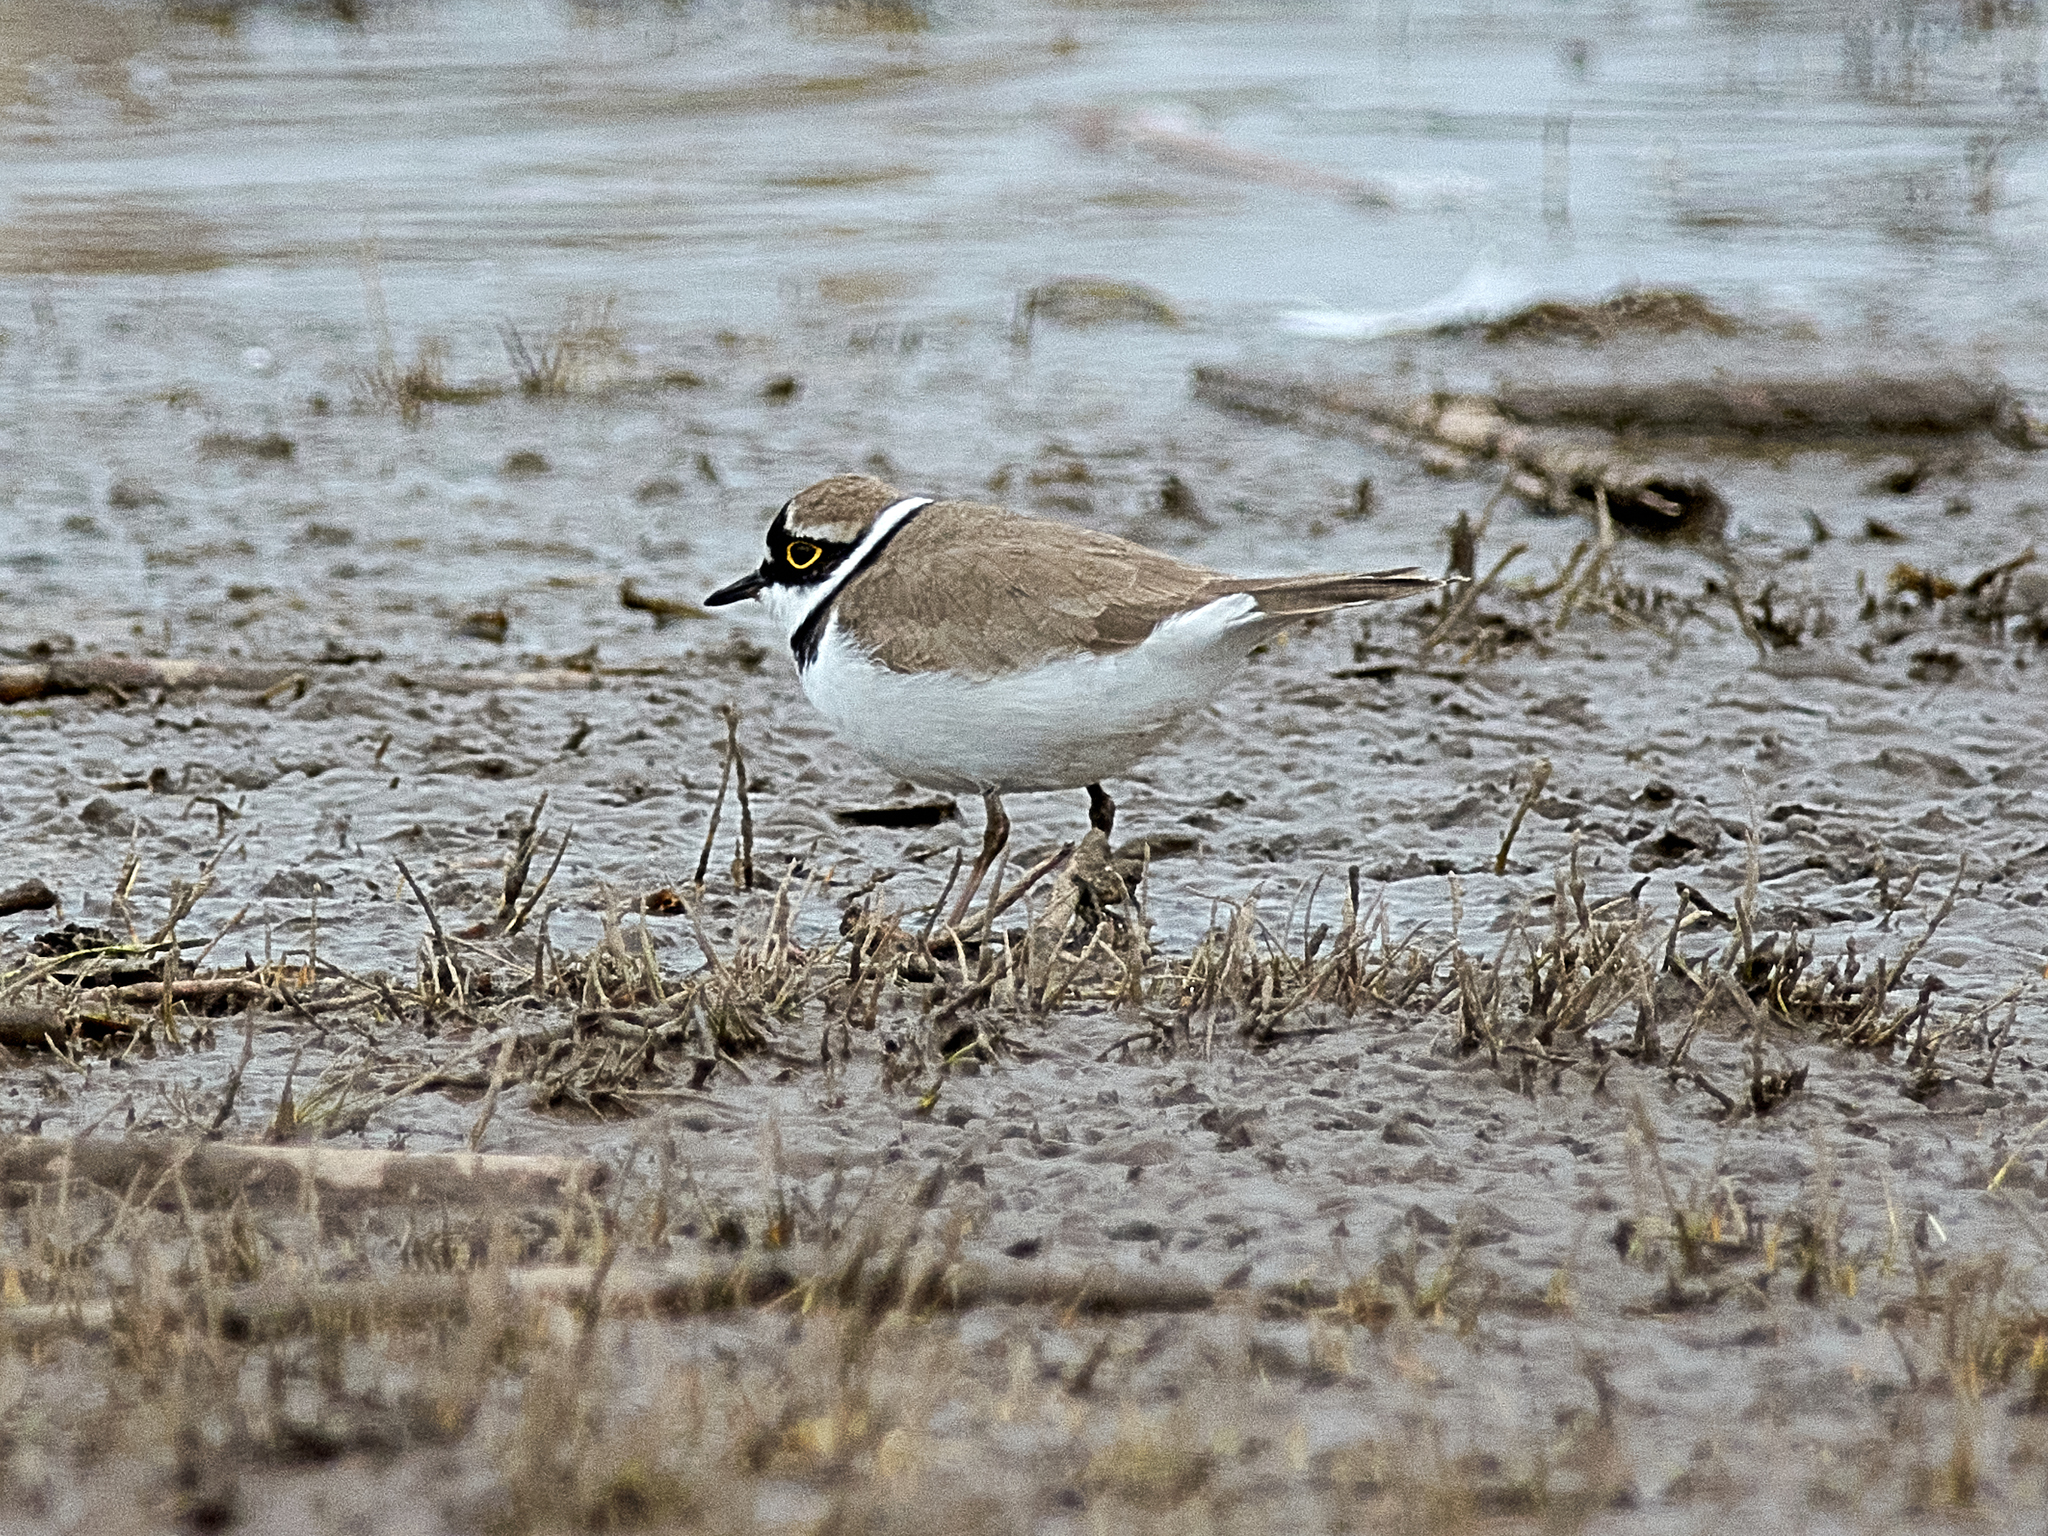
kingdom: Animalia
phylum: Chordata
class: Aves
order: Charadriiformes
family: Charadriidae
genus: Charadrius
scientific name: Charadrius dubius
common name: Little ringed plover
